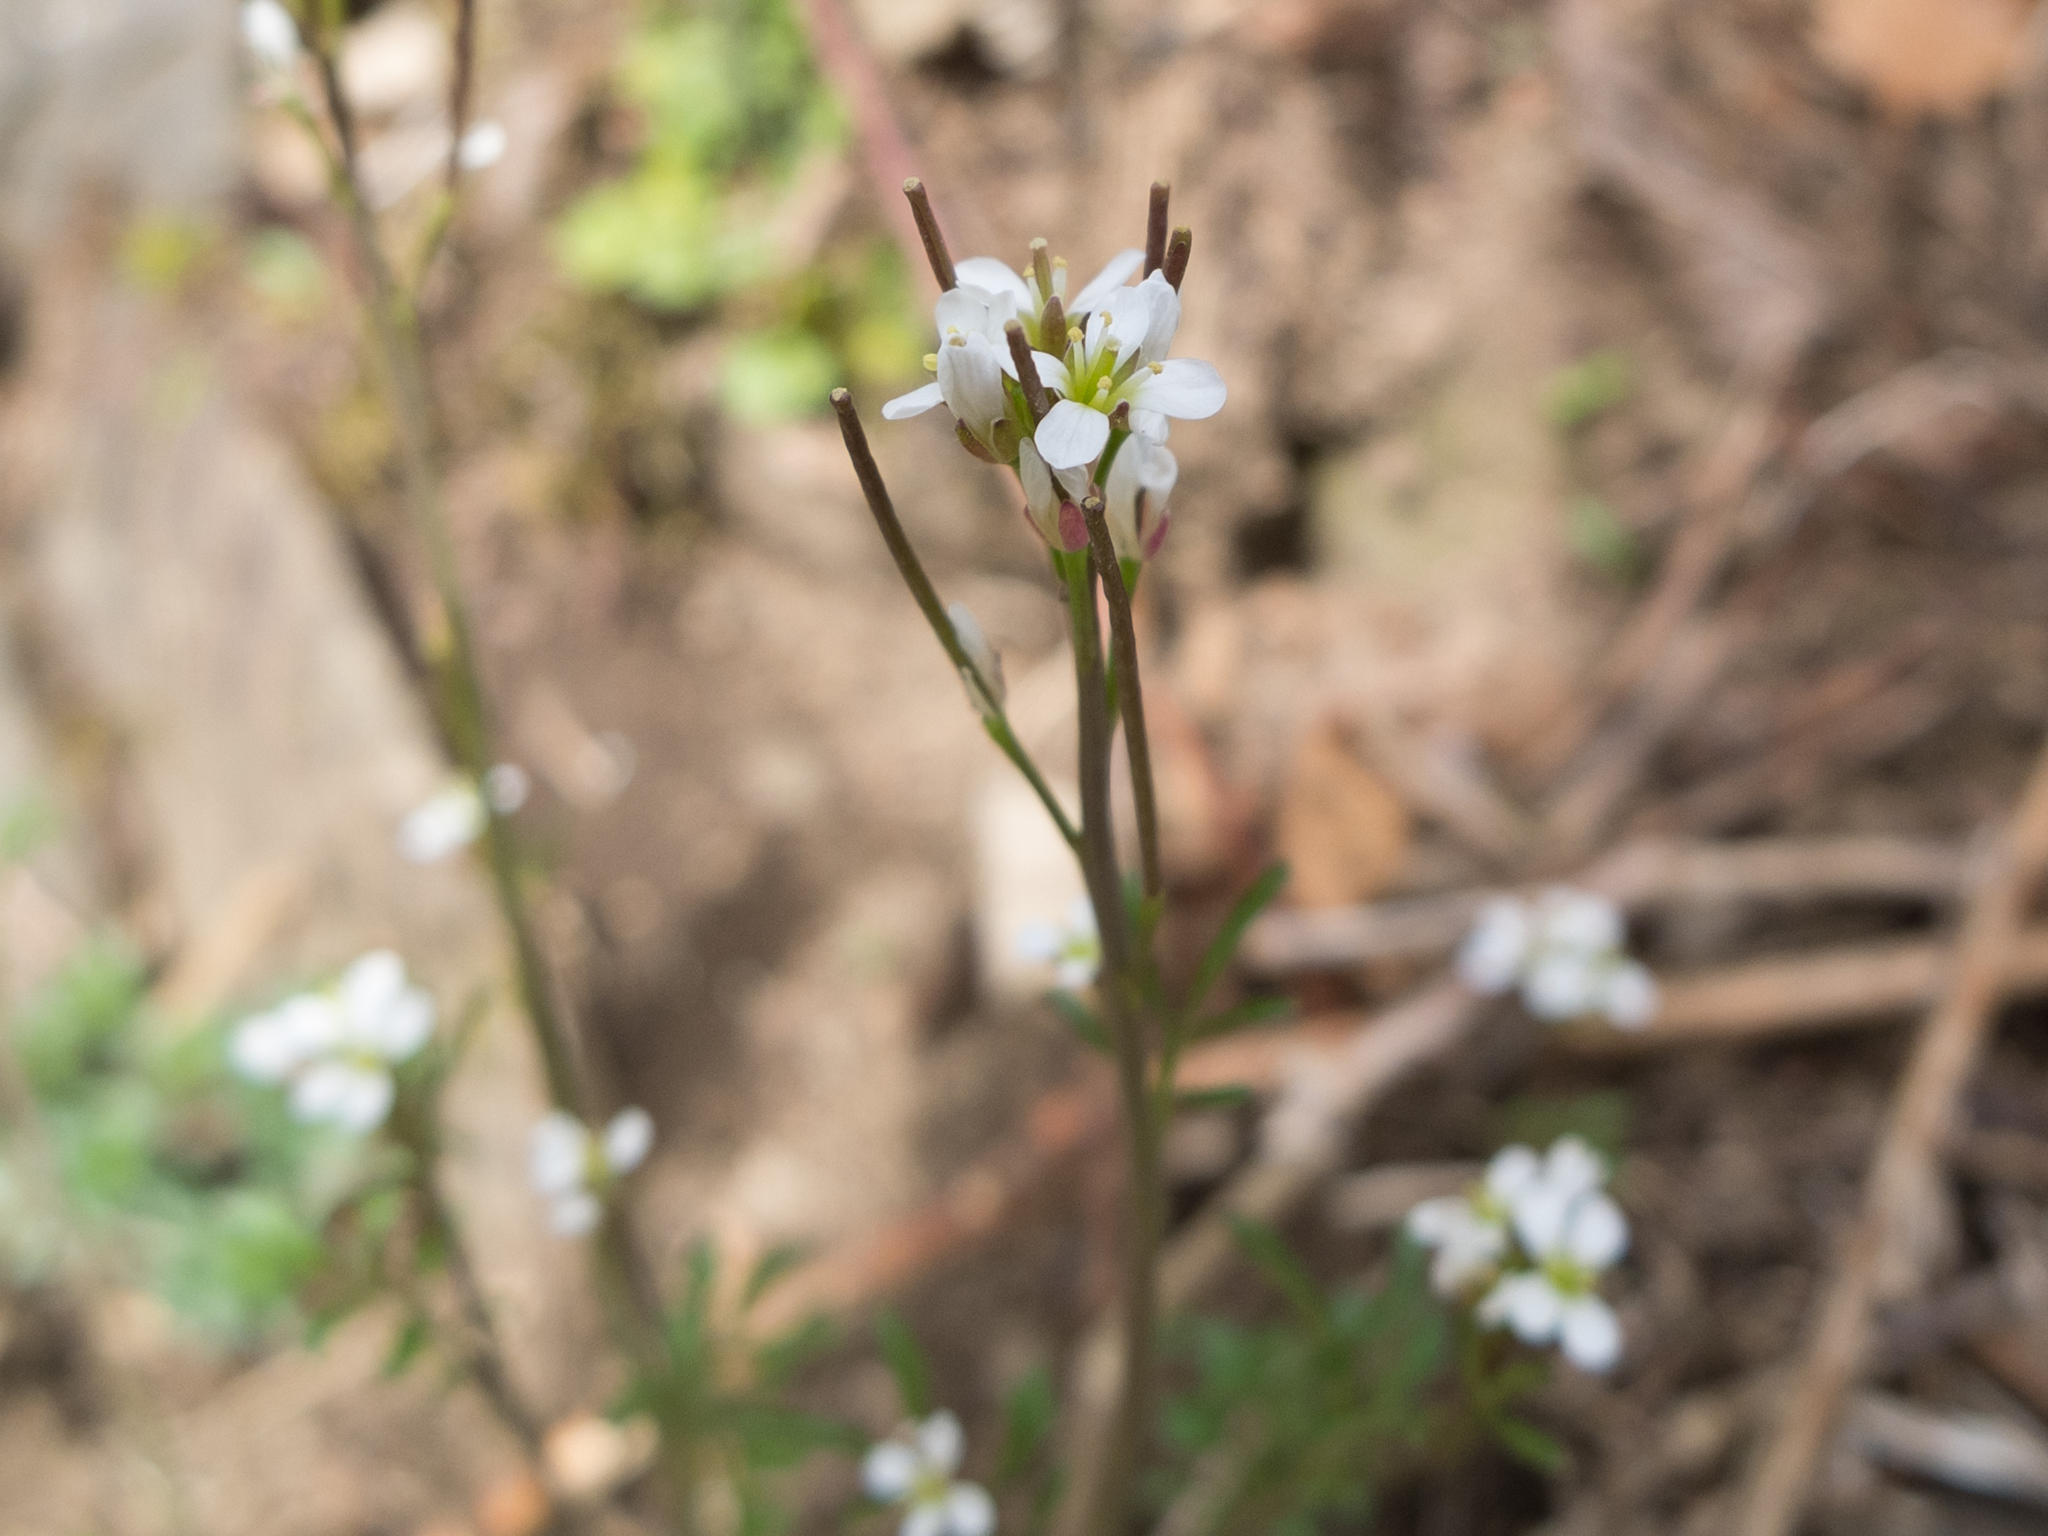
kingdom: Plantae
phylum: Tracheophyta
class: Magnoliopsida
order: Brassicales
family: Brassicaceae
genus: Cardamine
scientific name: Cardamine hirsuta
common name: Hairy bittercress
